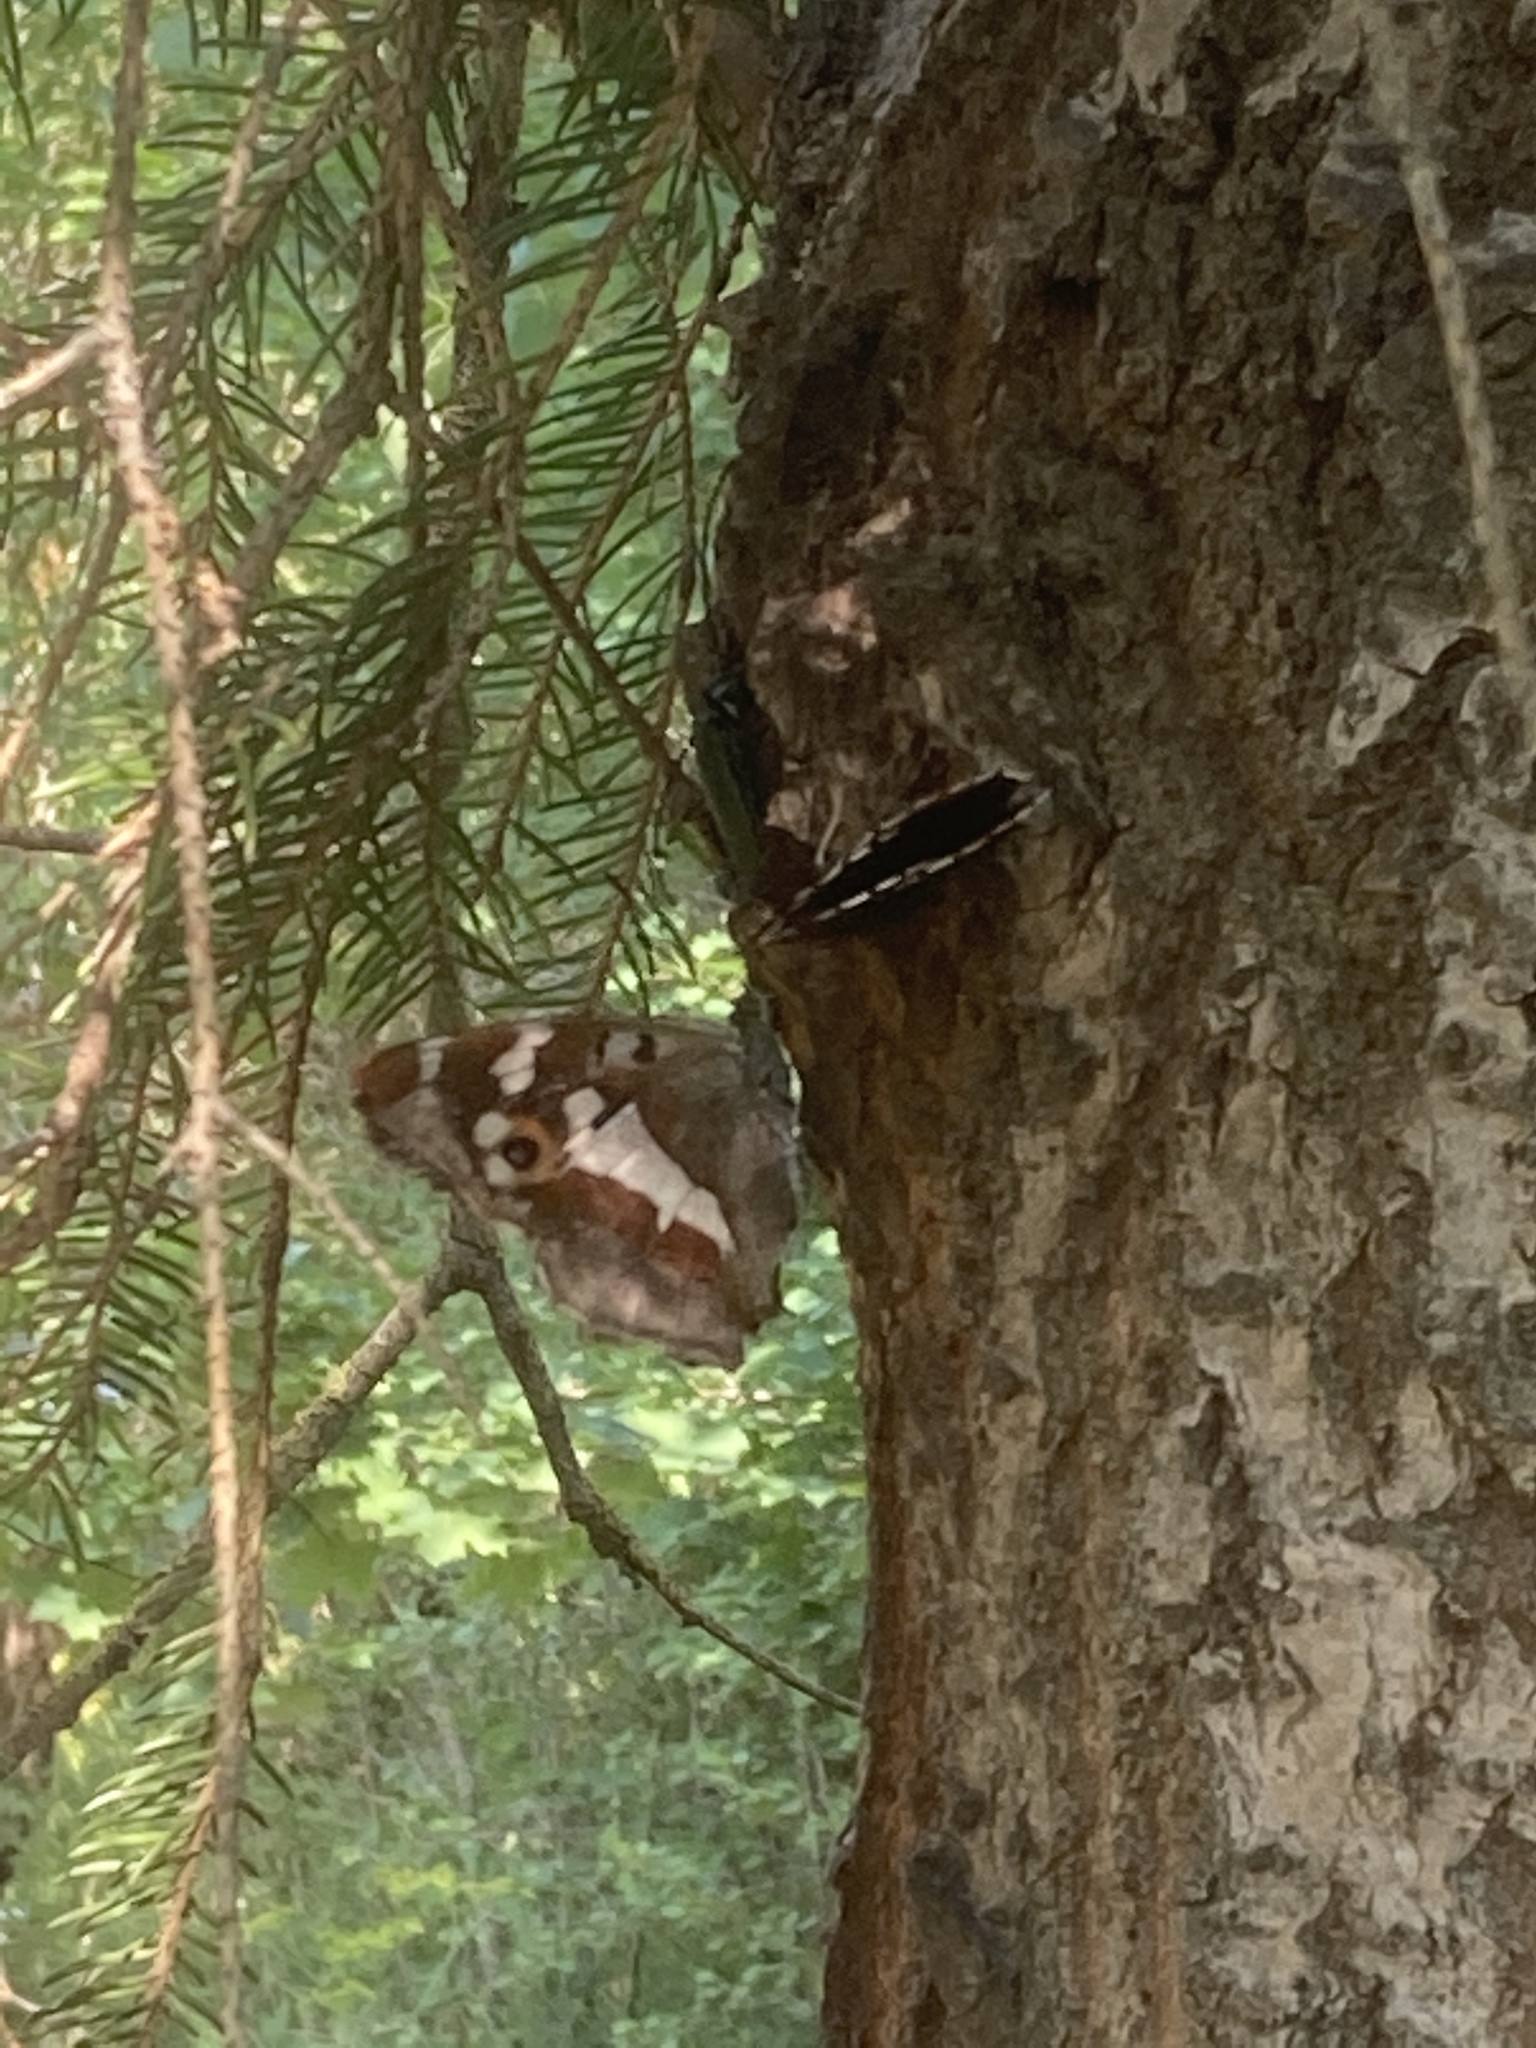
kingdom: Animalia
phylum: Arthropoda
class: Insecta
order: Lepidoptera
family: Nymphalidae
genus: Apatura
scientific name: Apatura iris
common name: Purple emperor
